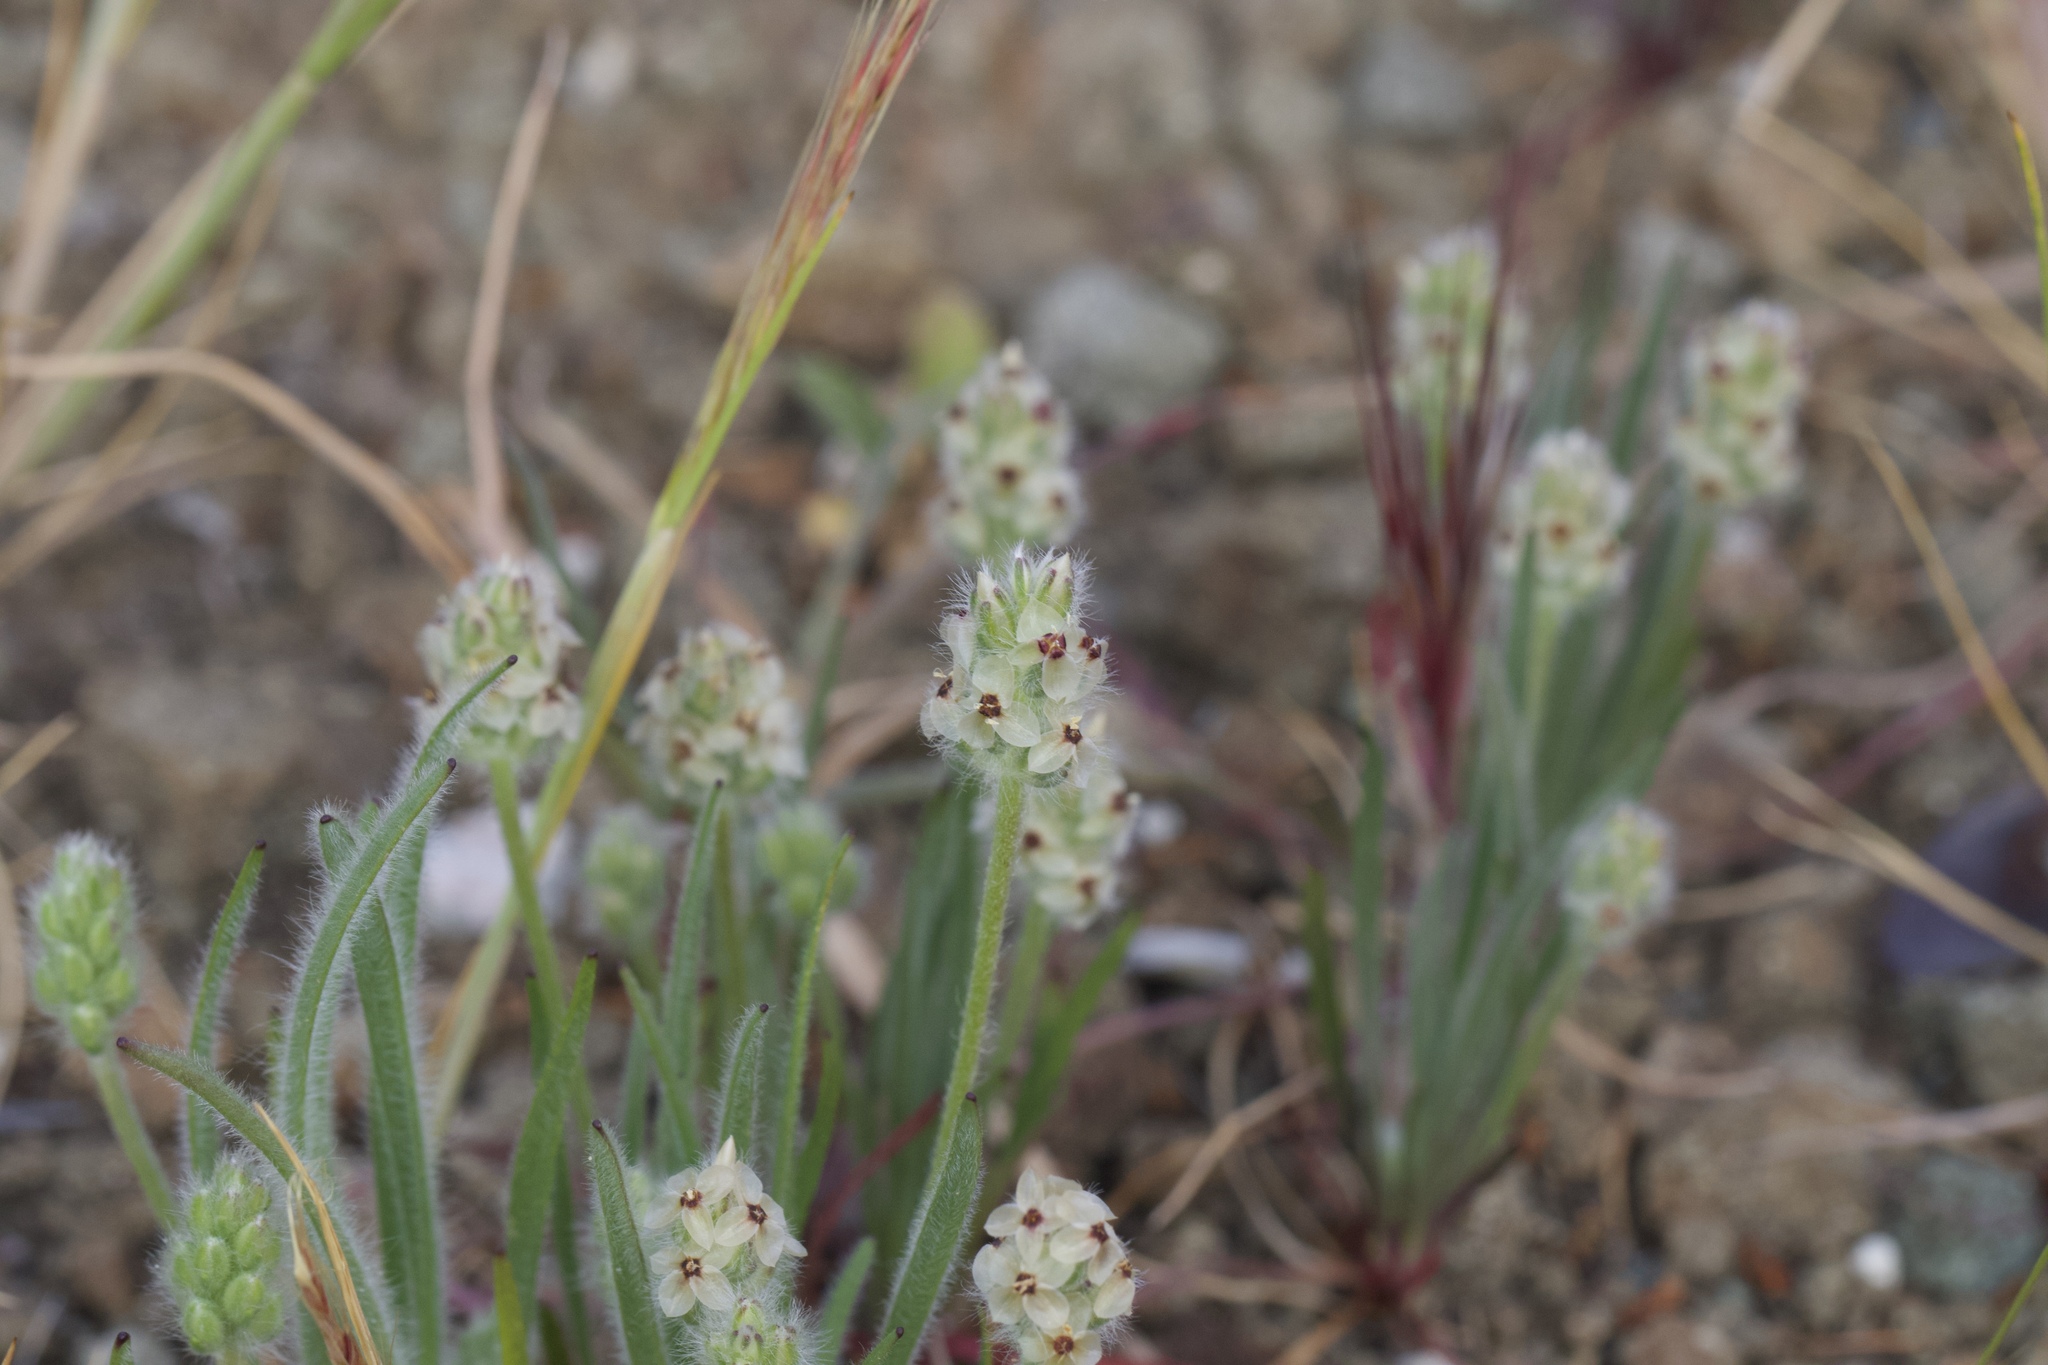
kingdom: Plantae
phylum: Tracheophyta
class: Magnoliopsida
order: Lamiales
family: Plantaginaceae
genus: Plantago
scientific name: Plantago erecta
